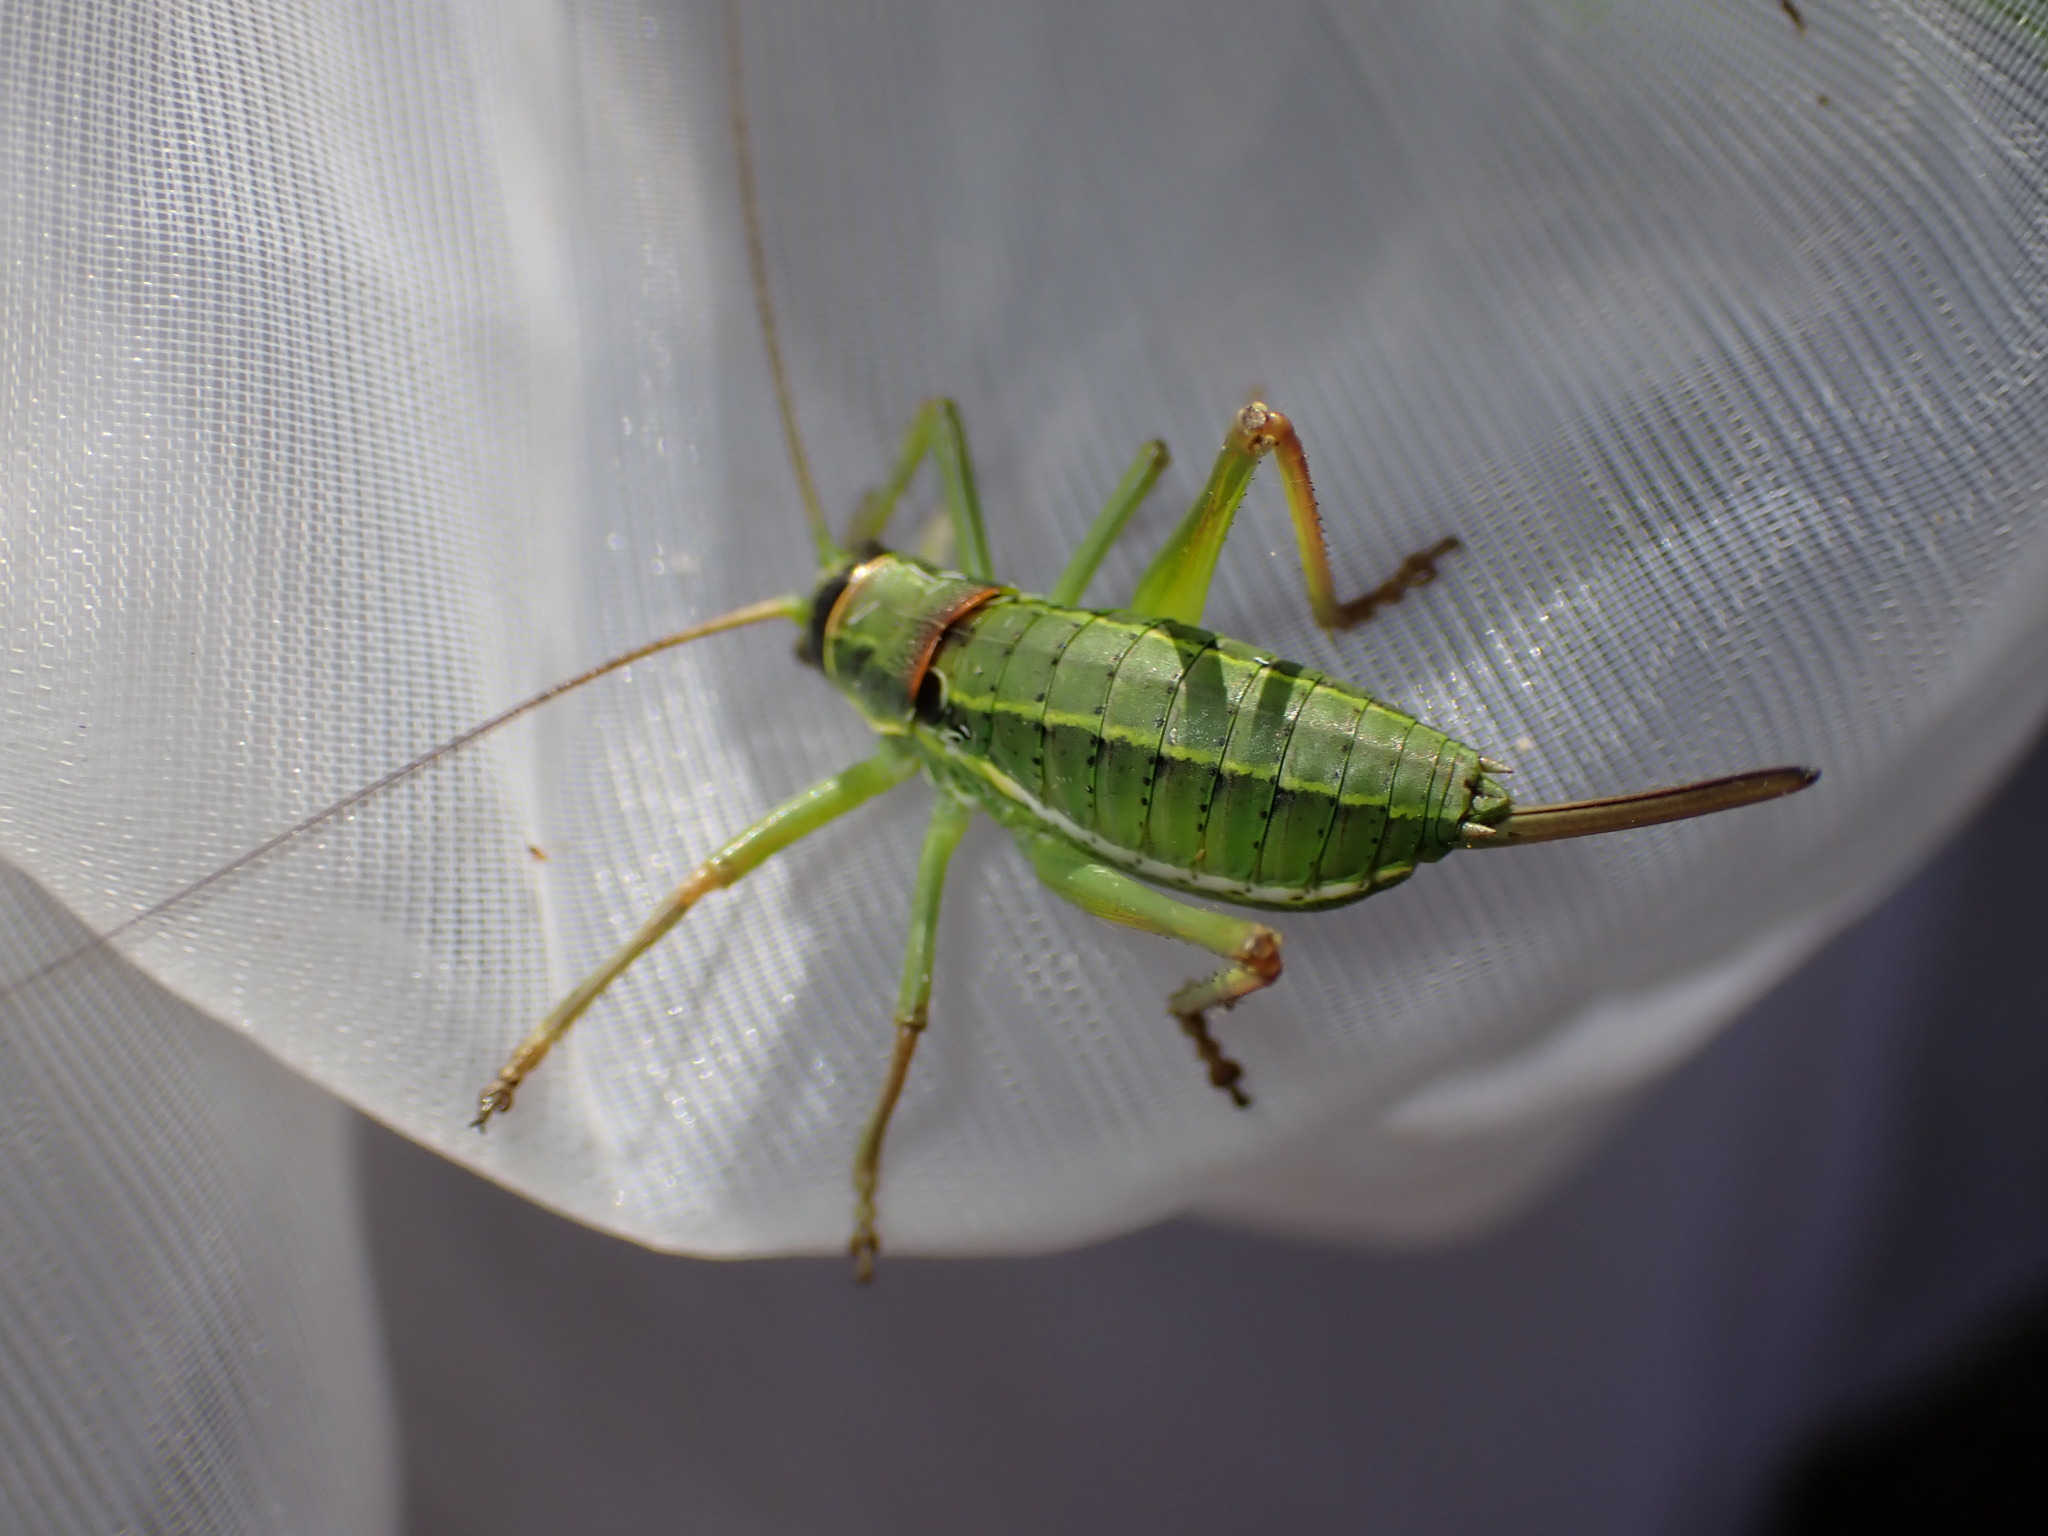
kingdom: Animalia
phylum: Arthropoda
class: Insecta
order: Orthoptera
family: Tettigoniidae
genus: Ephippiger
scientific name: Ephippiger terrestris
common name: Alpine saddle-backed bush-cricket
